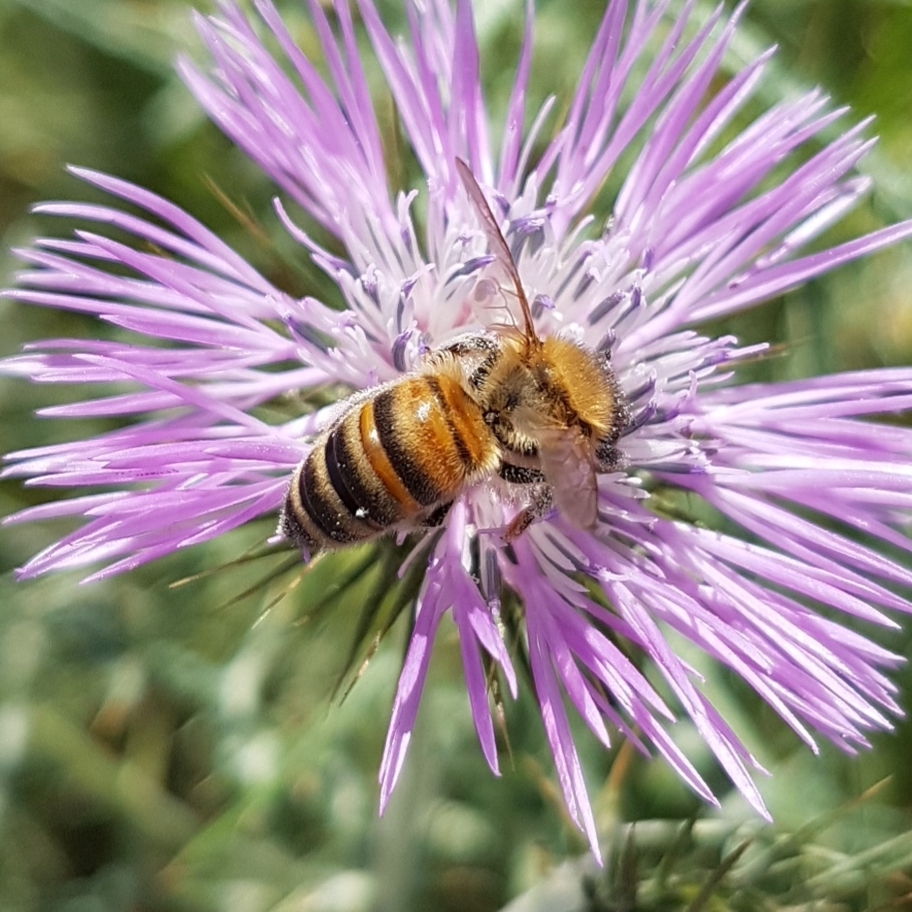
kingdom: Animalia
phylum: Arthropoda
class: Insecta
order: Hymenoptera
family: Apidae
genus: Apis
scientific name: Apis mellifera
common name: Honey bee
